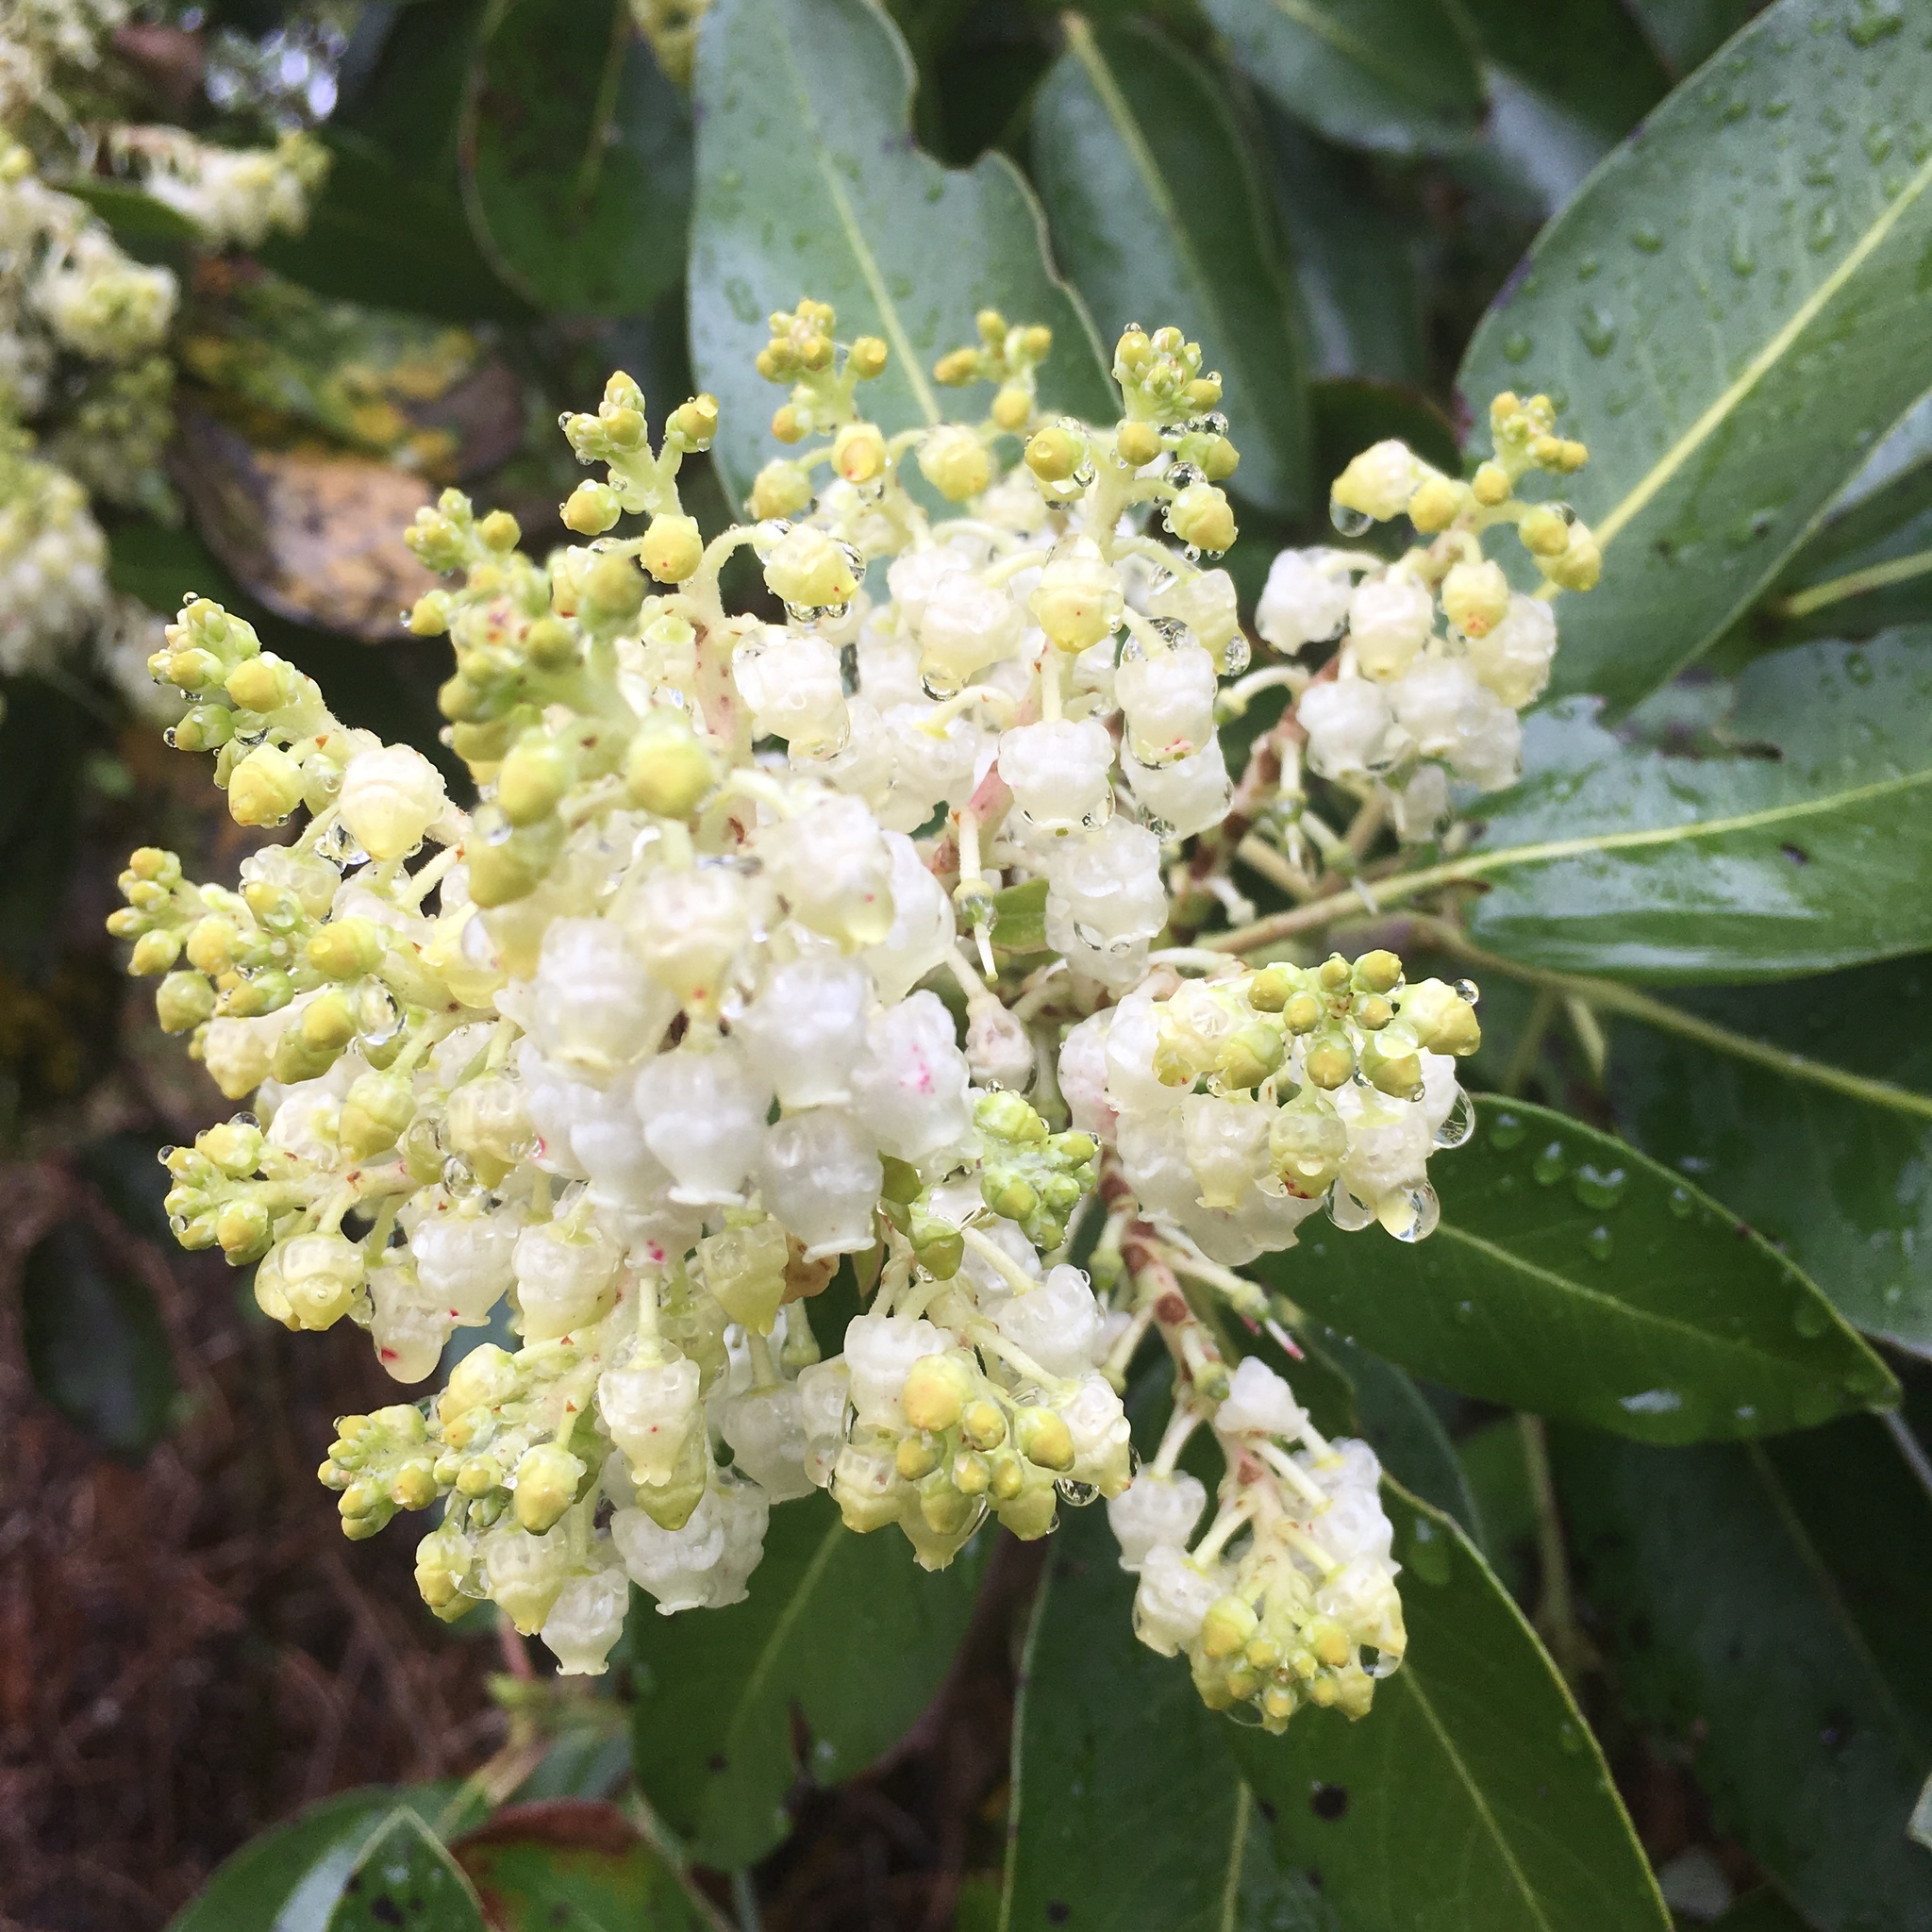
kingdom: Plantae
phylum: Tracheophyta
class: Magnoliopsida
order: Ericales
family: Ericaceae
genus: Arbutus
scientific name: Arbutus menziesii
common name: Pacific madrone
